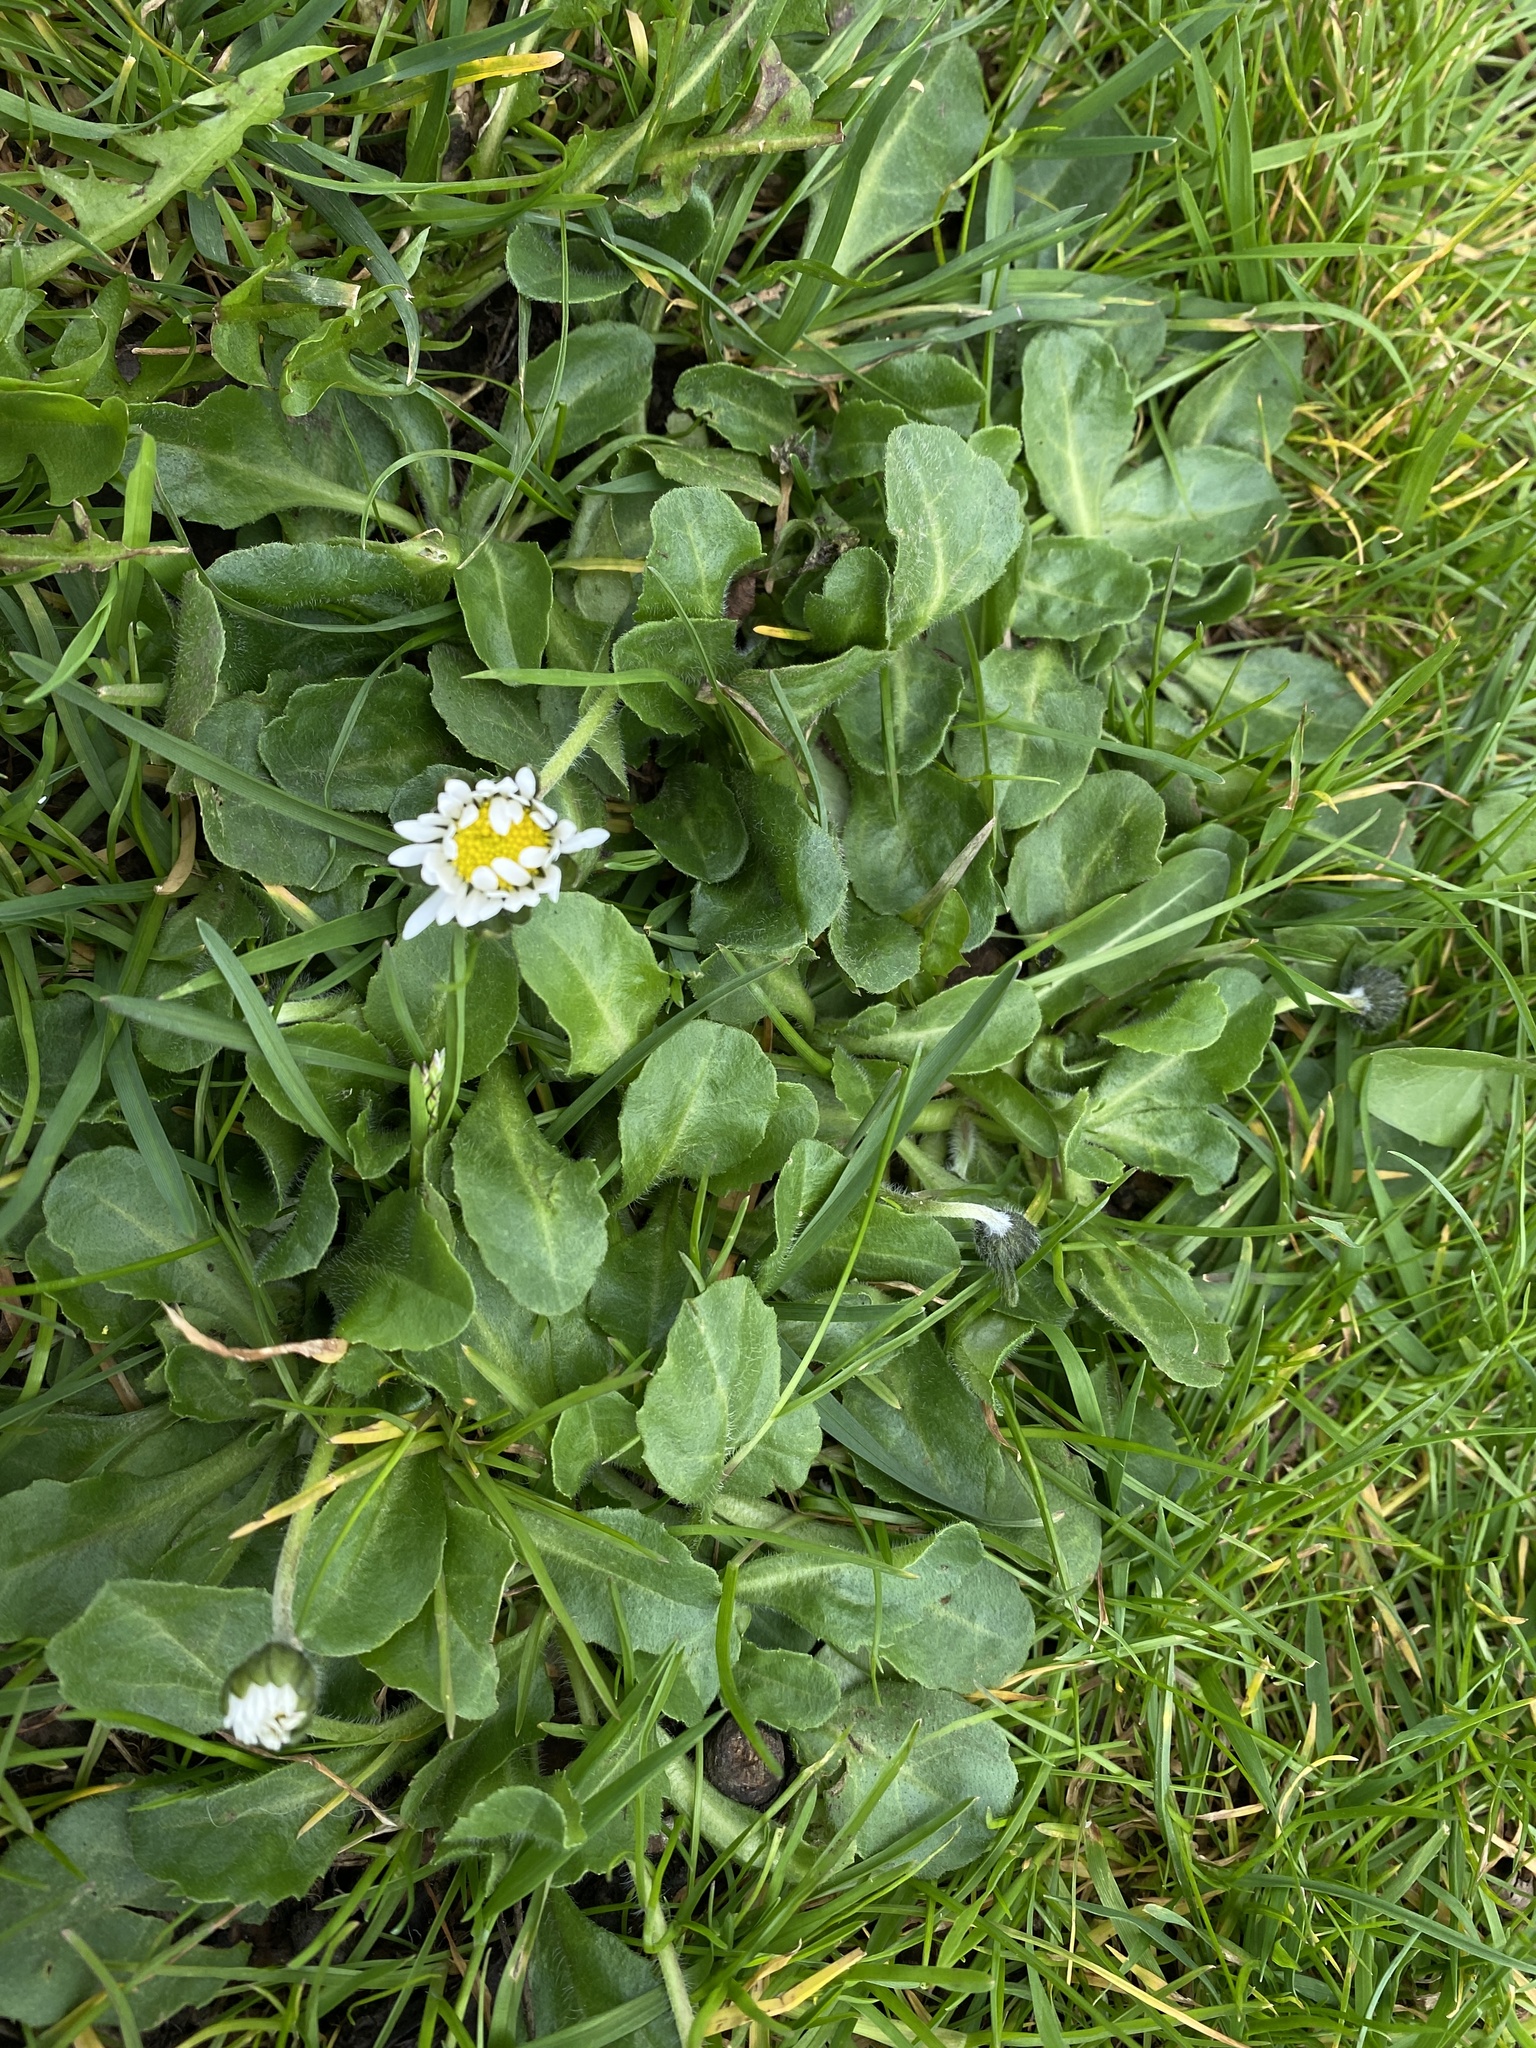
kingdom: Plantae
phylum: Tracheophyta
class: Magnoliopsida
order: Asterales
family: Asteraceae
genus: Bellis
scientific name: Bellis perennis
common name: Lawndaisy
